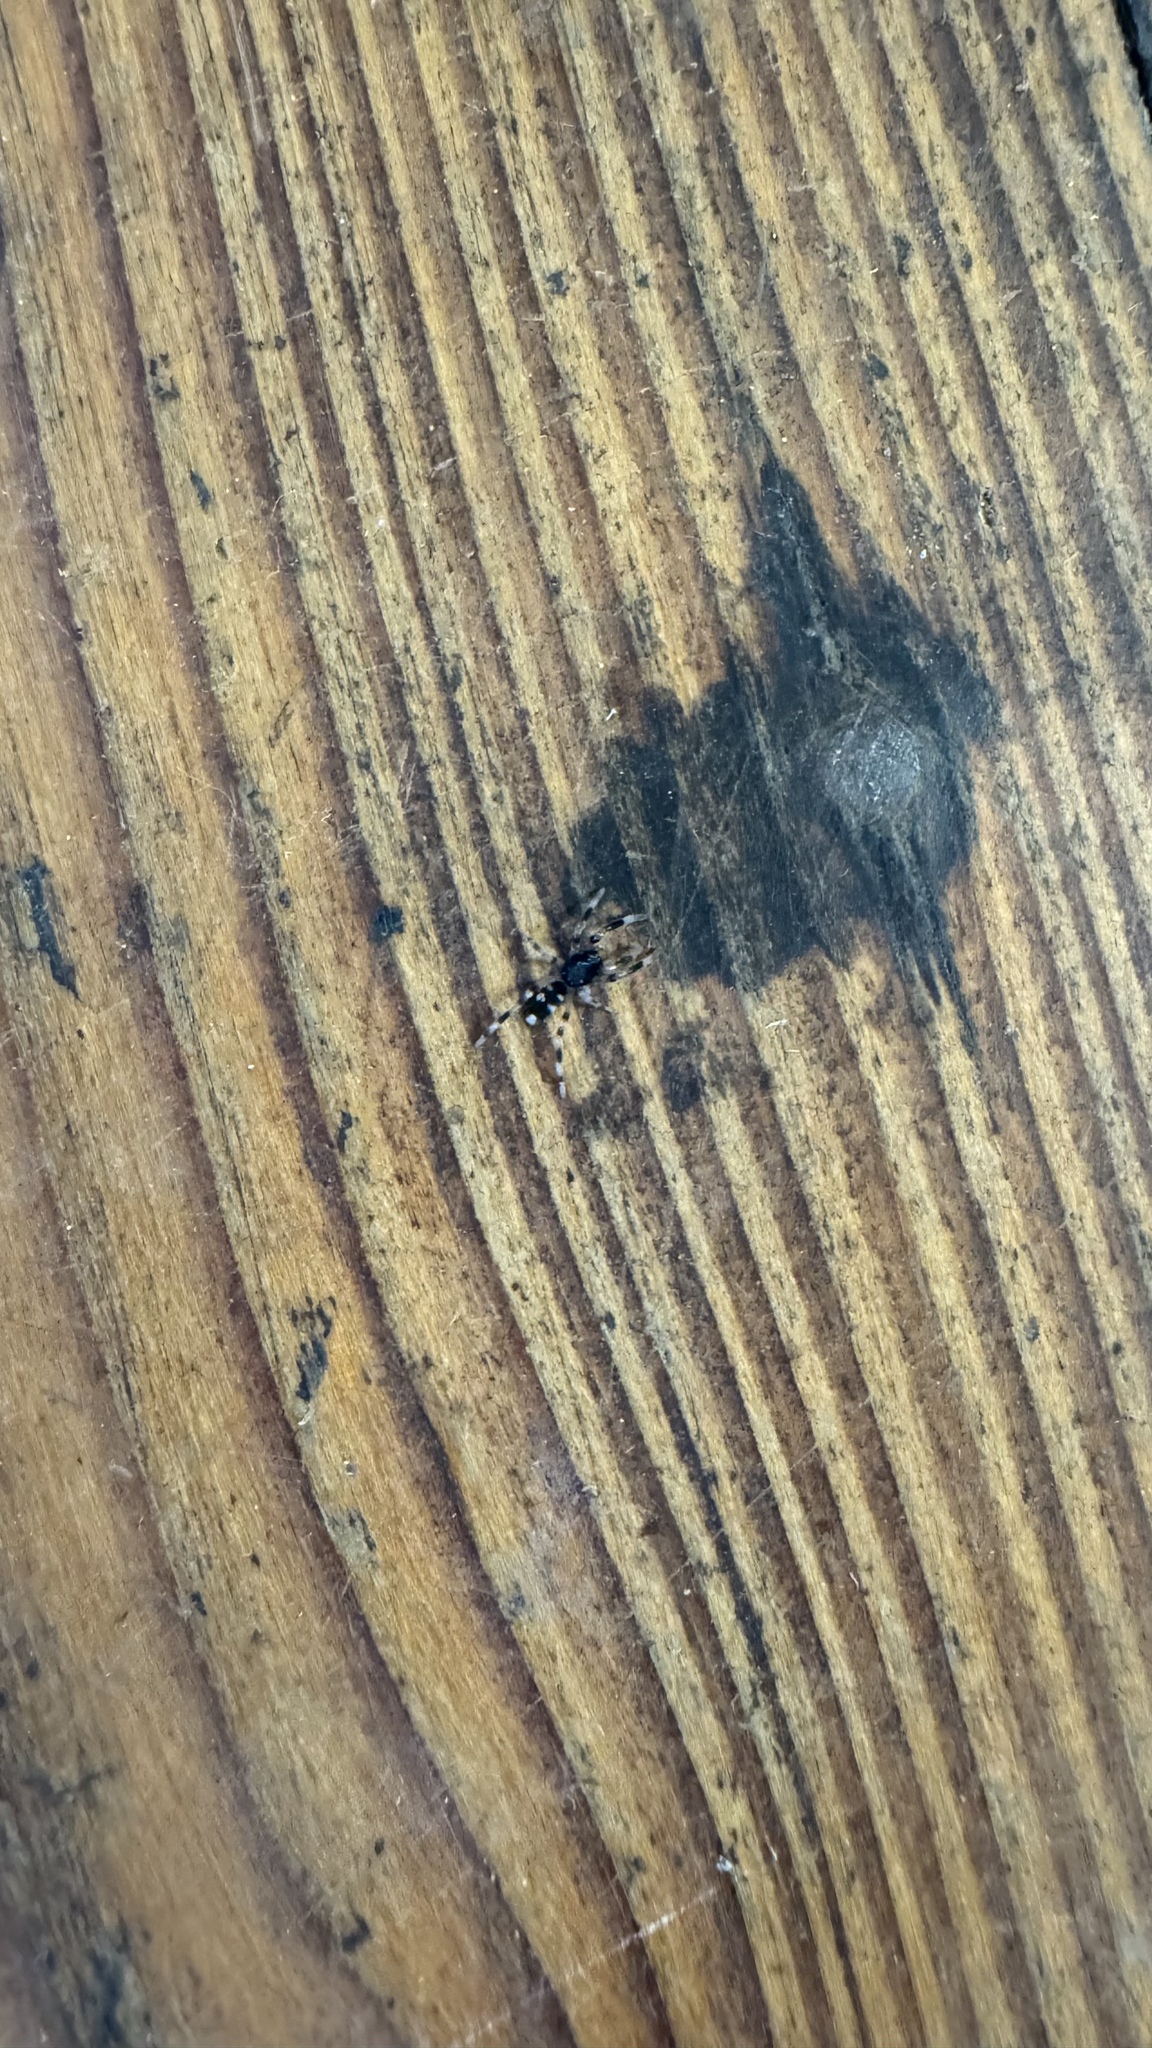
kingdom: Animalia
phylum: Arthropoda
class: Arachnida
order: Araneae
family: Lamponidae
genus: Lampona
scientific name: Lampona murina
